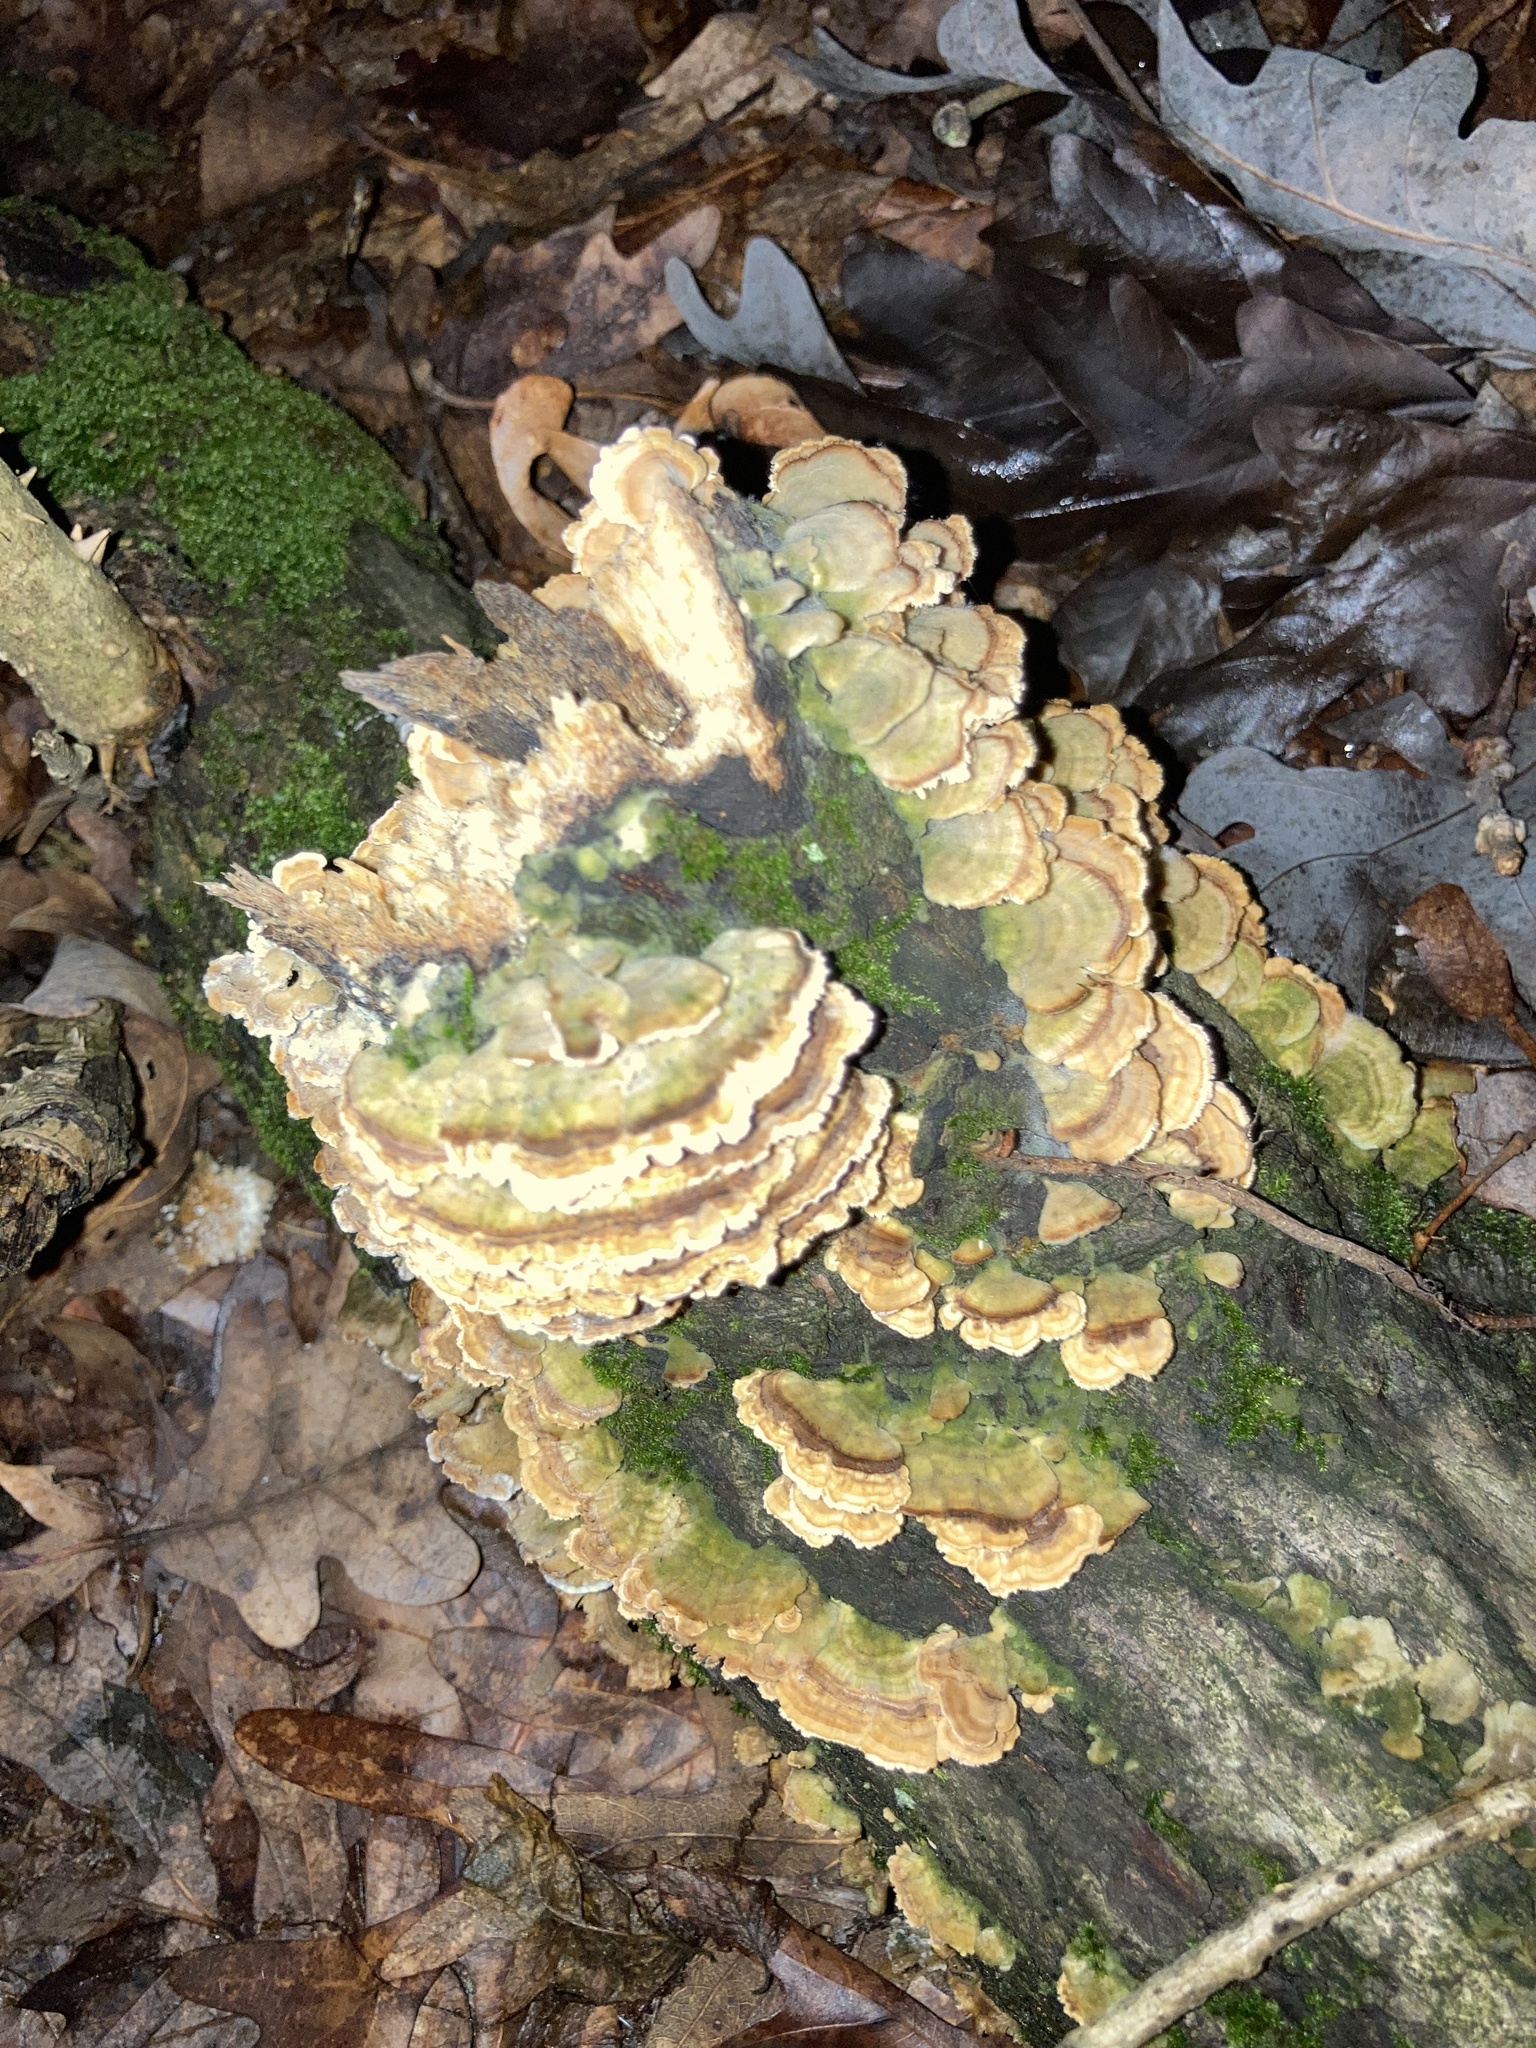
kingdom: Fungi
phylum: Basidiomycota
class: Agaricomycetes
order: Hymenochaetales
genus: Trichaptum
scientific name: Trichaptum biforme
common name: Violet-toothed polypore
